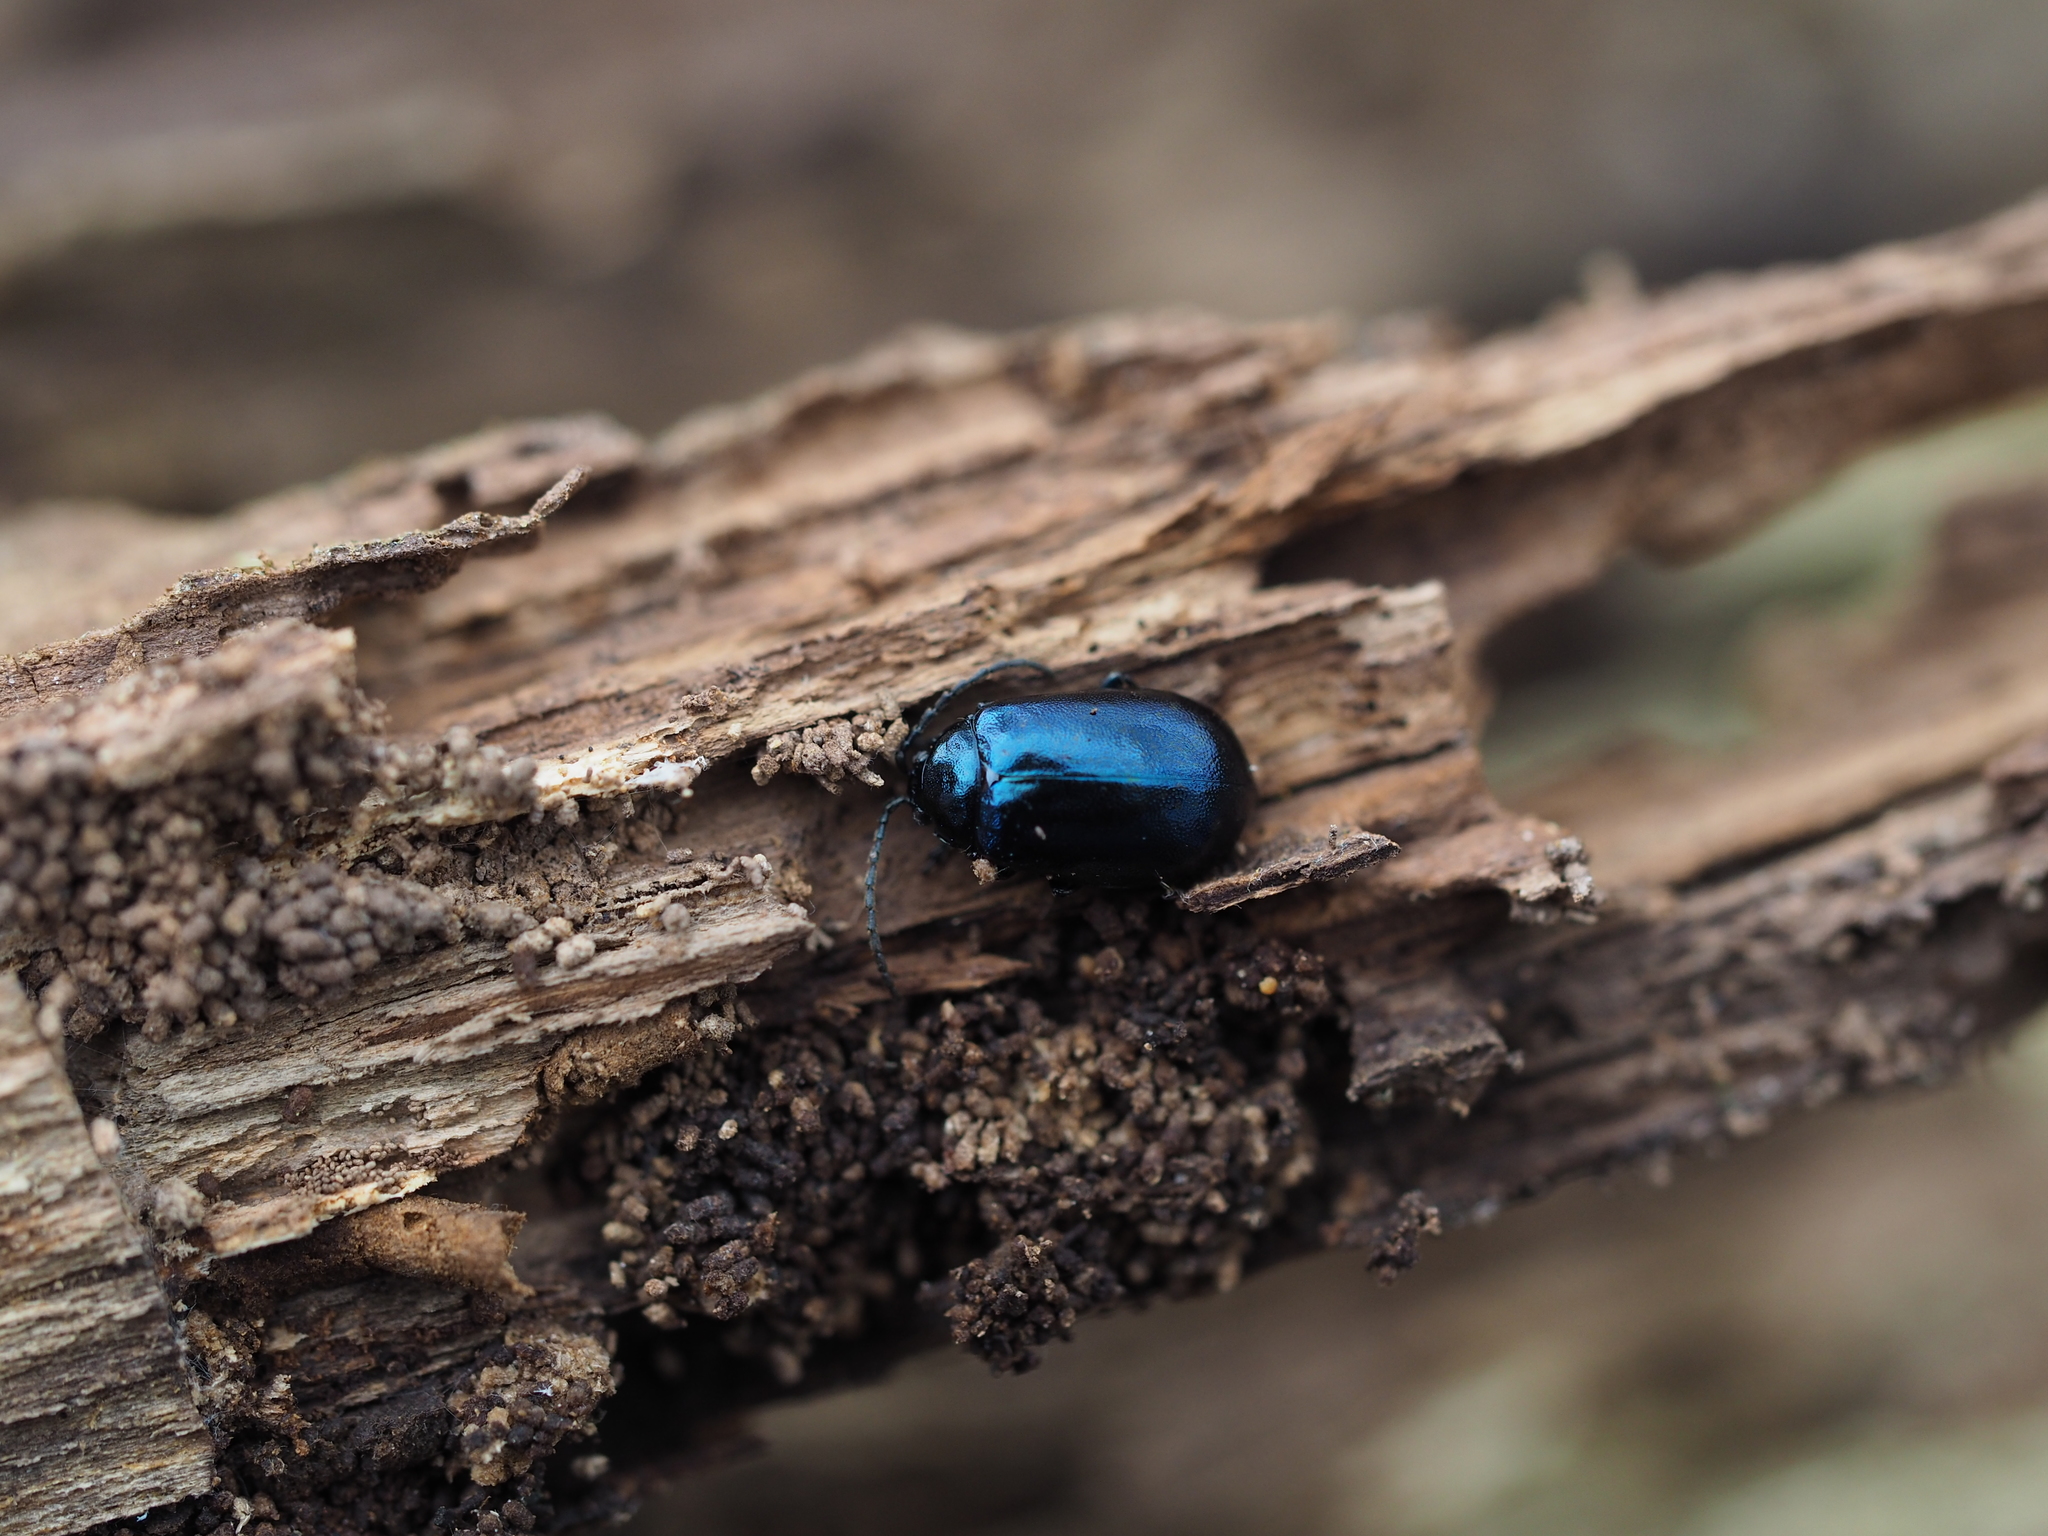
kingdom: Animalia
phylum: Arthropoda
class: Insecta
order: Coleoptera
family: Chrysomelidae
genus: Agelastica
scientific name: Agelastica alni
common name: Alder leaf beetle
